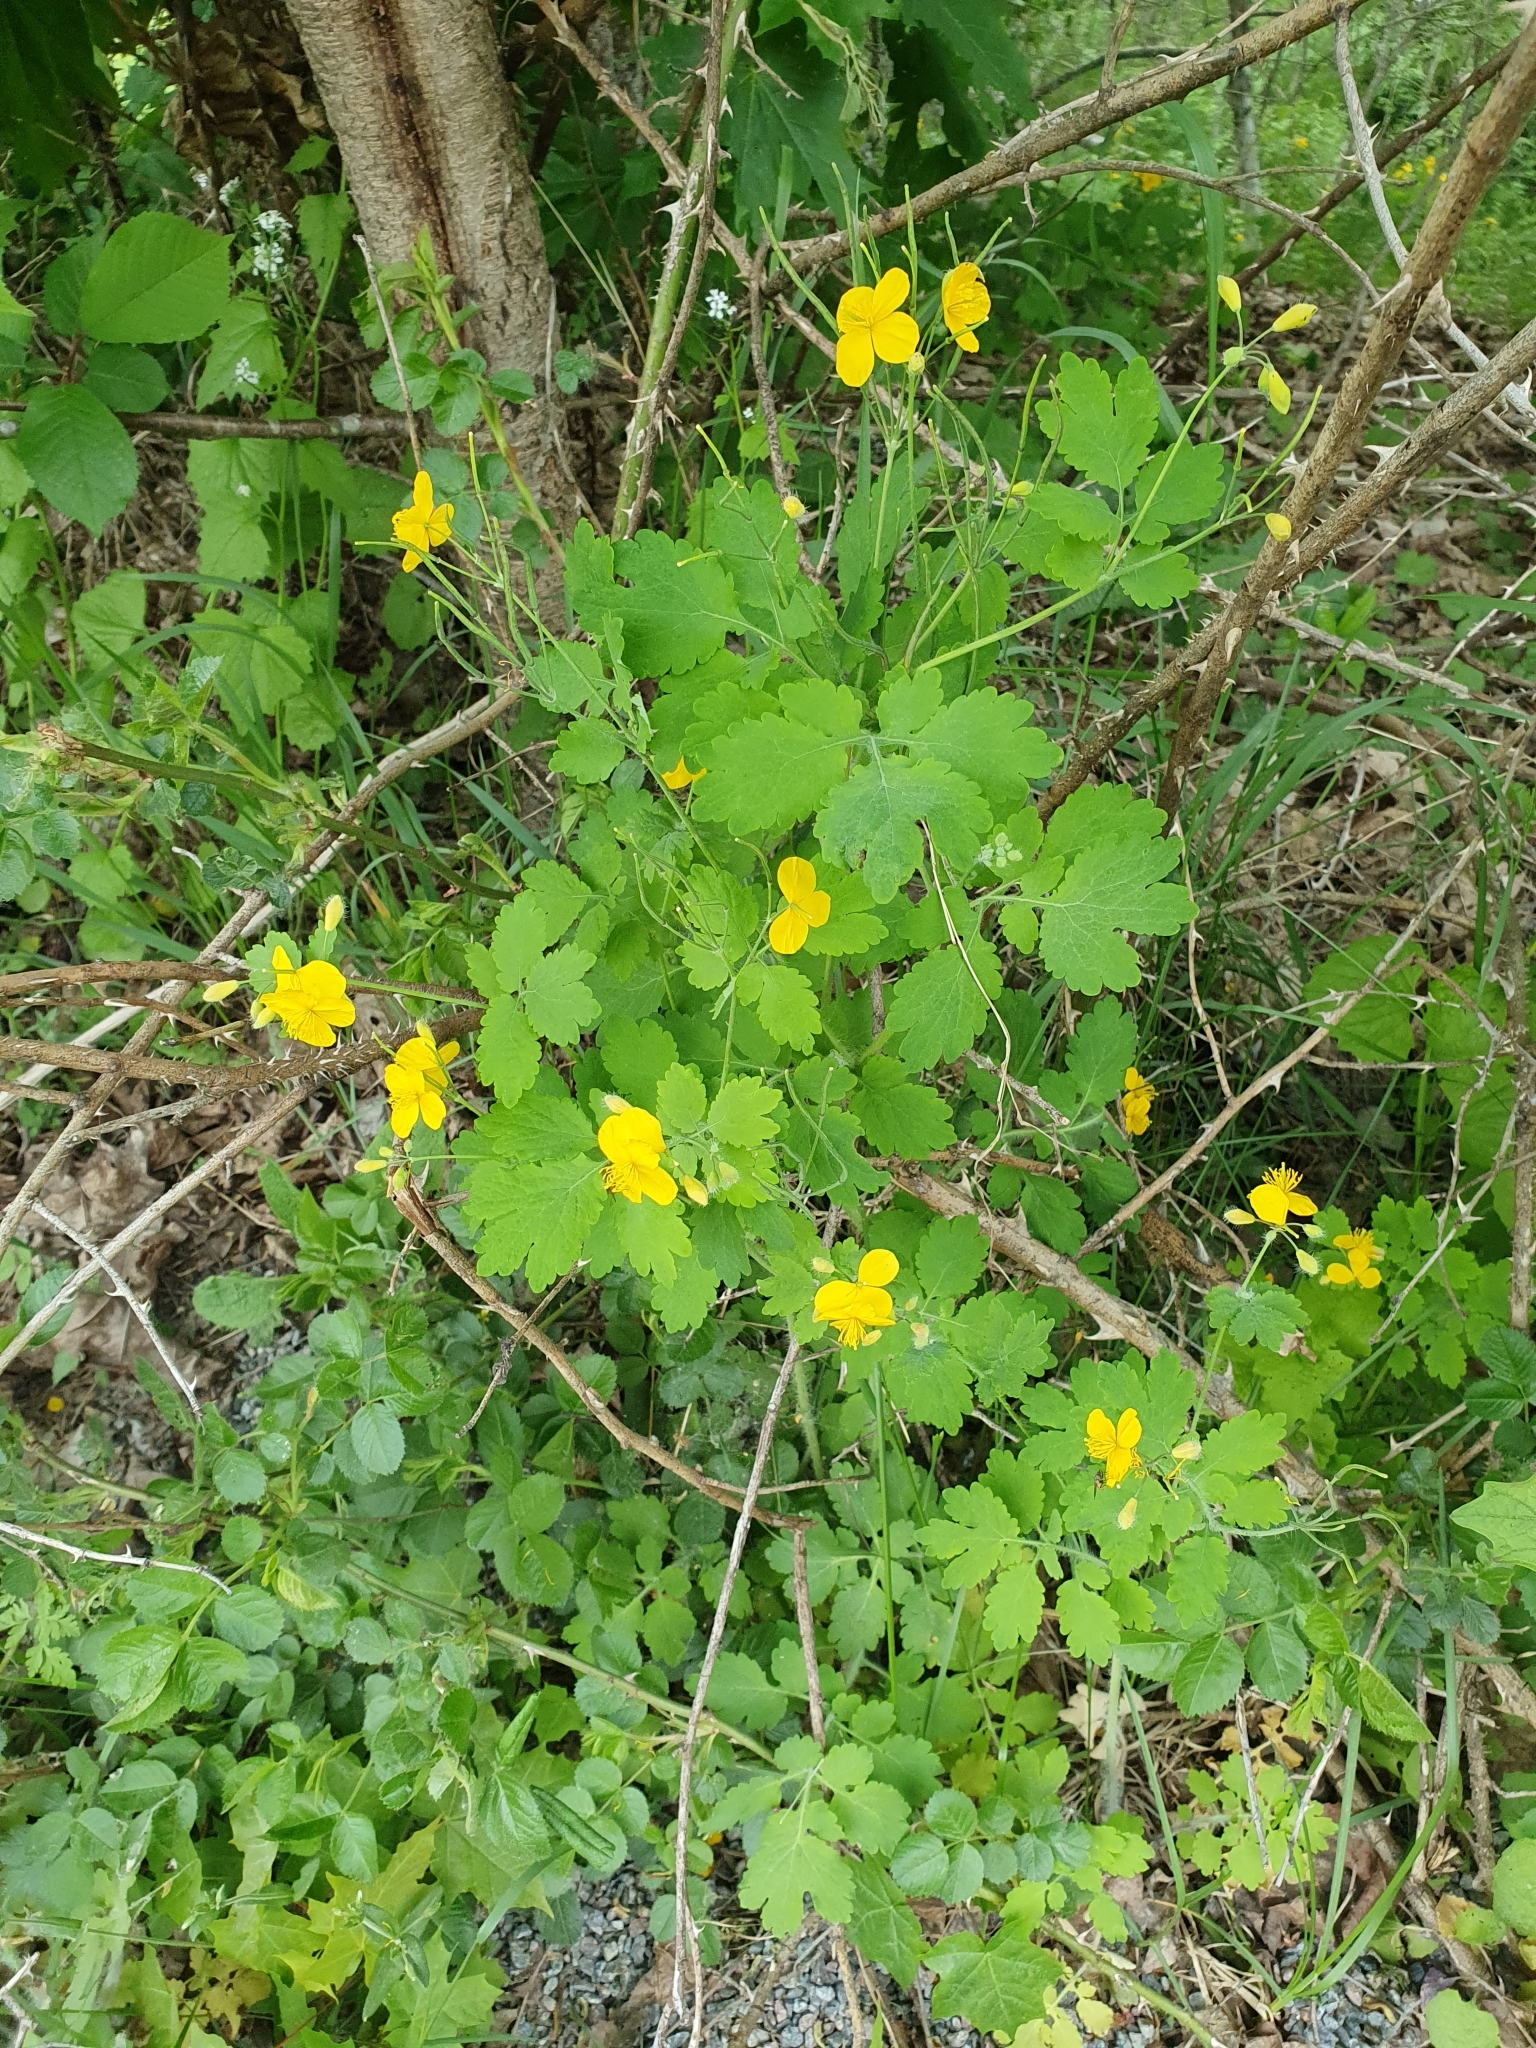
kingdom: Plantae
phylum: Tracheophyta
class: Magnoliopsida
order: Ranunculales
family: Papaveraceae
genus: Chelidonium
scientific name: Chelidonium majus
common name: Greater celandine
